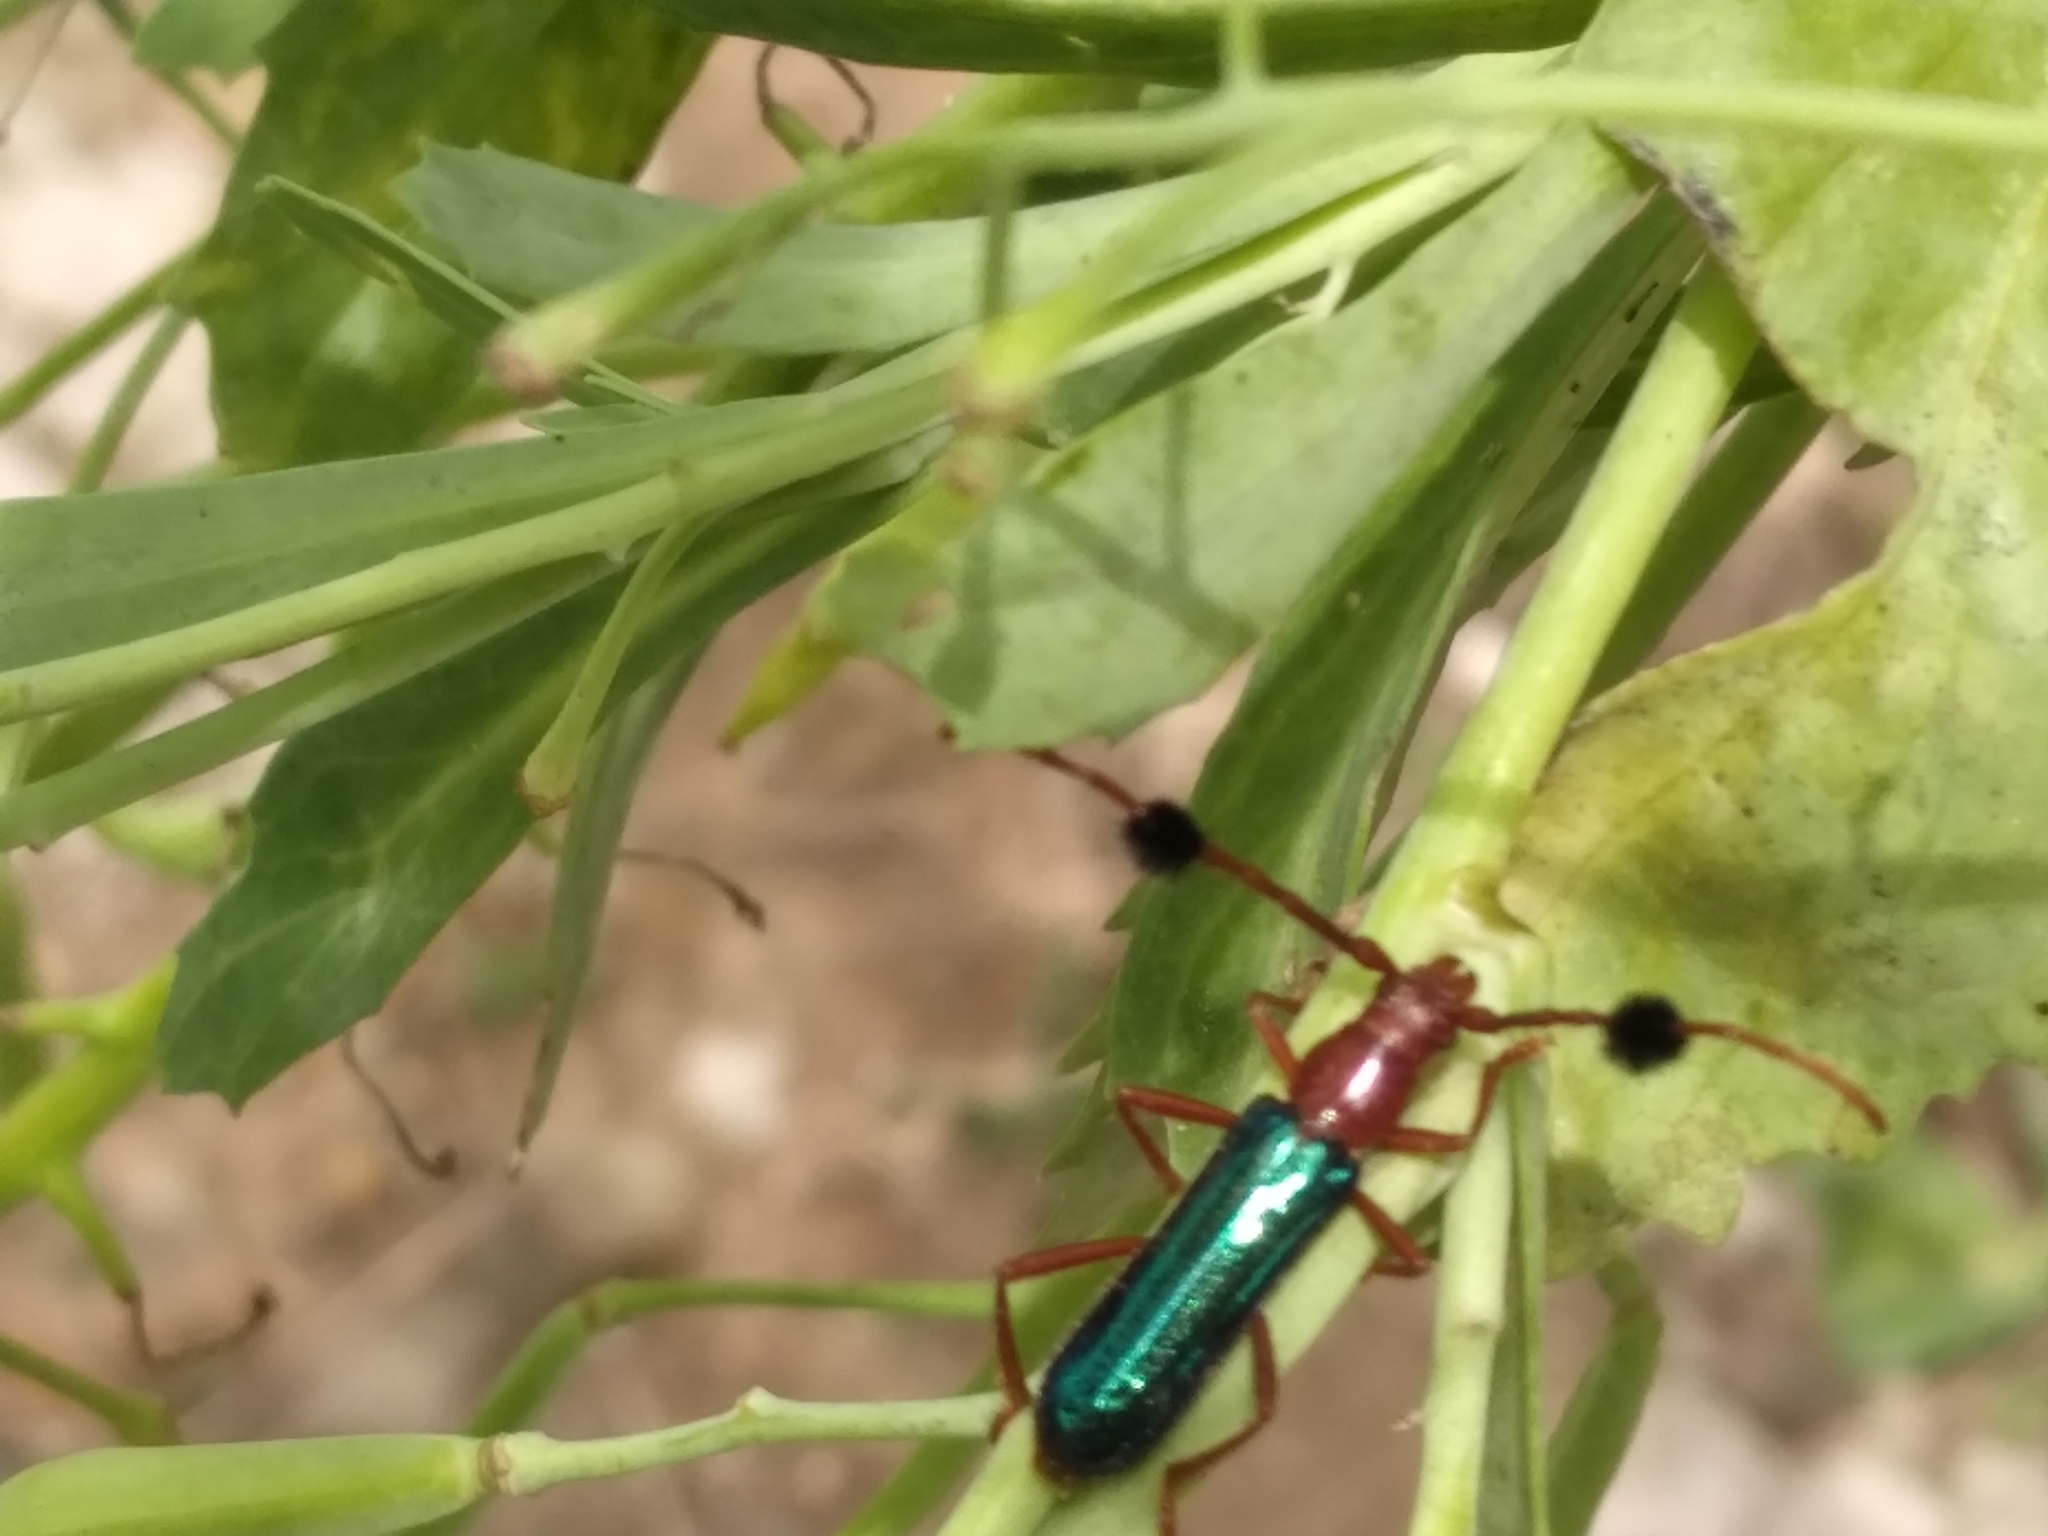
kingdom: Animalia
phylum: Arthropoda
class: Insecta
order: Coleoptera
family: Cerambycidae
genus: Compsocerus
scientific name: Compsocerus violaceus
